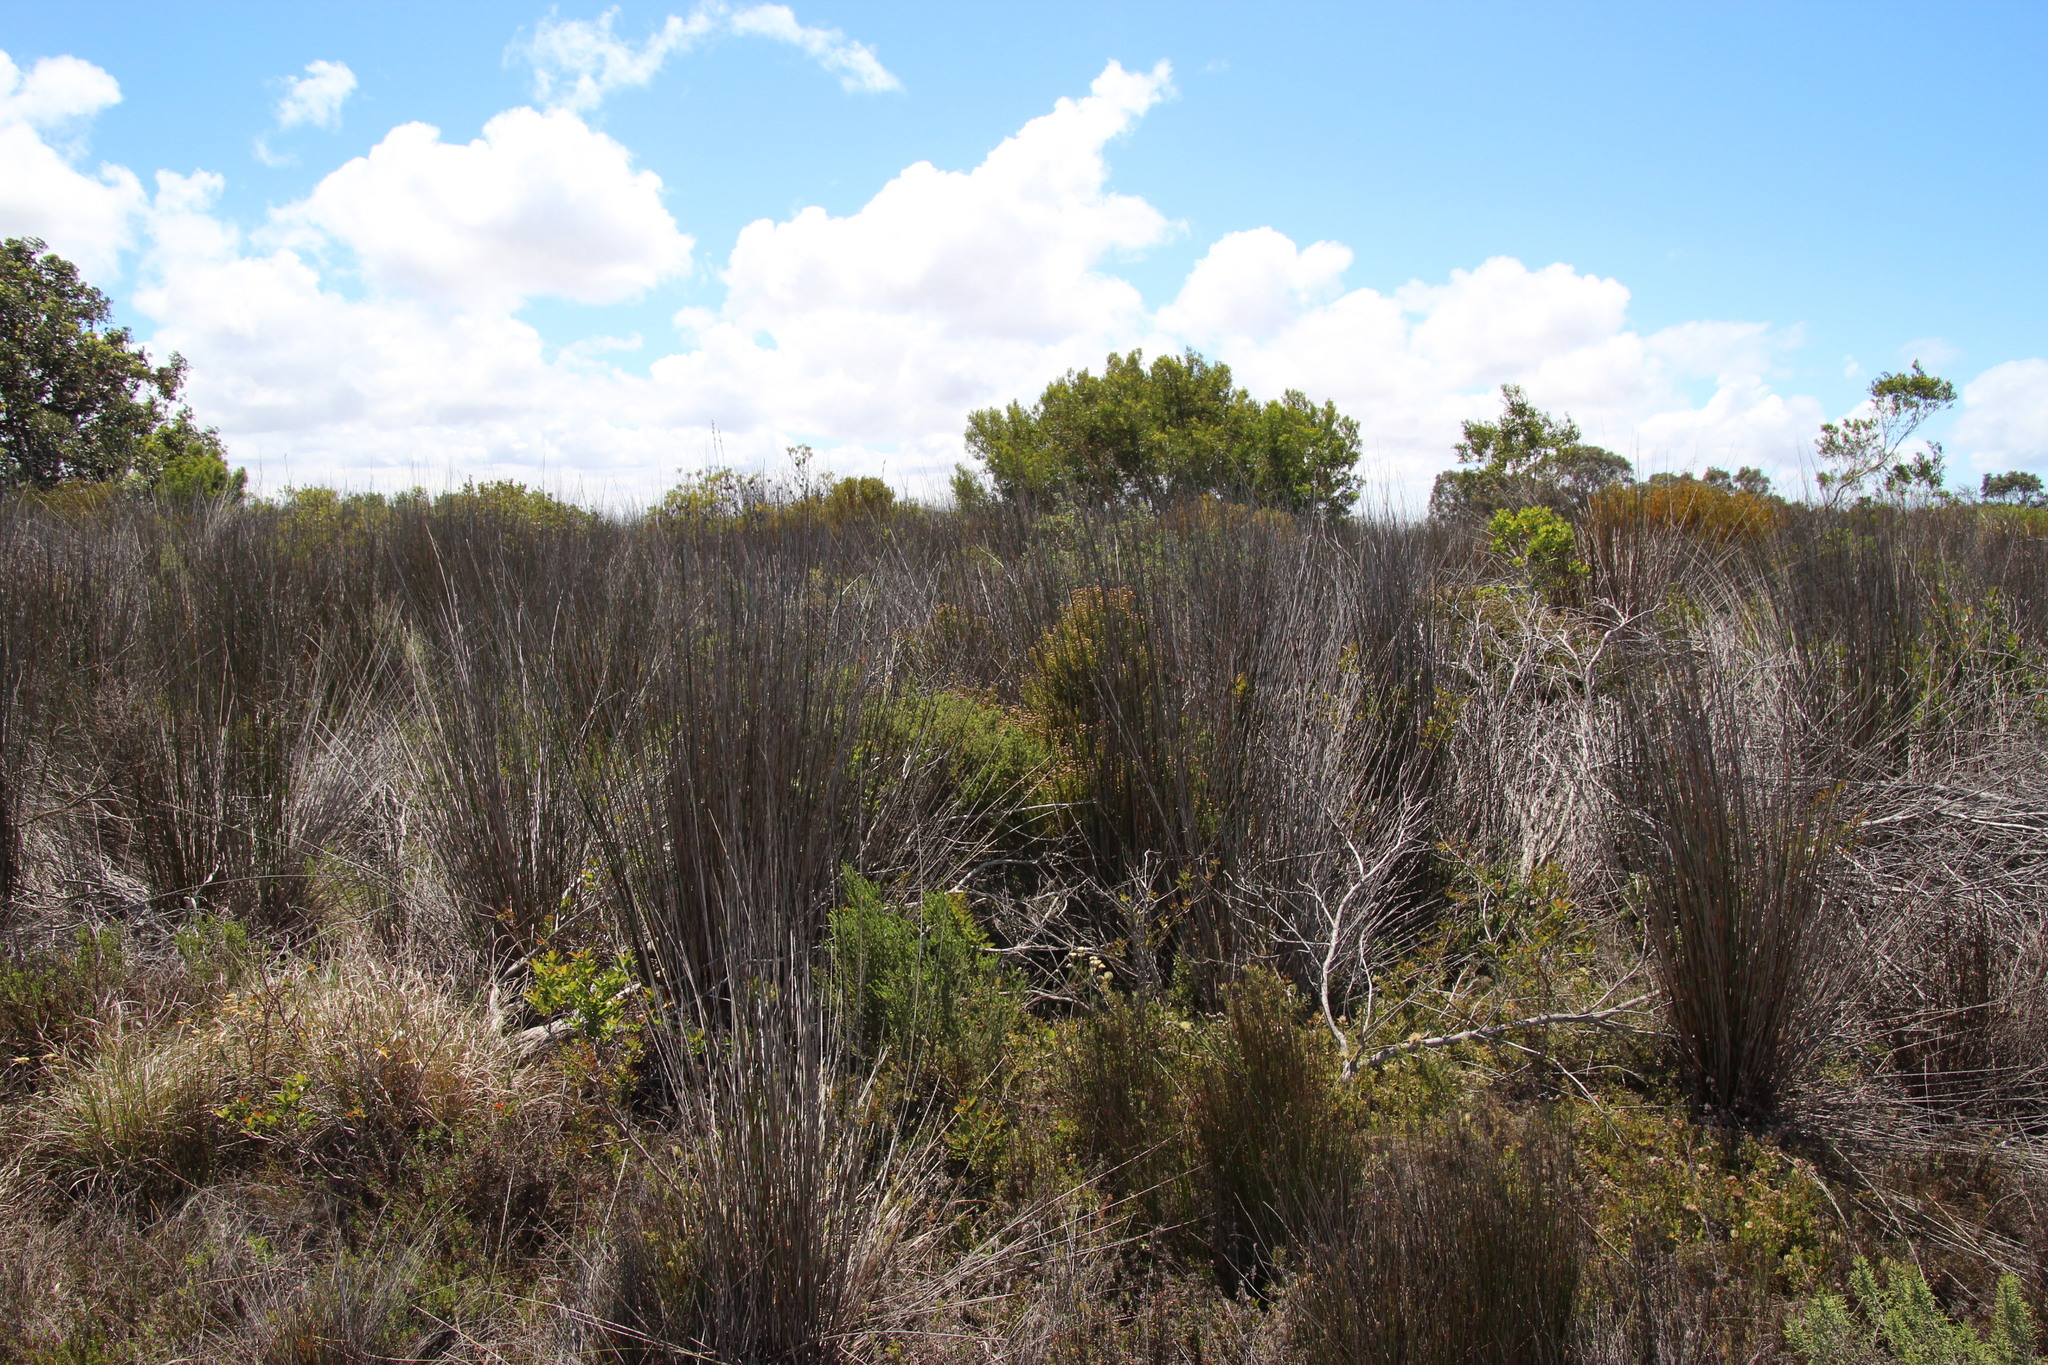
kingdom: Plantae
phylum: Tracheophyta
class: Liliopsida
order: Poales
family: Restionaceae
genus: Thamnochortus
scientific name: Thamnochortus insignis
